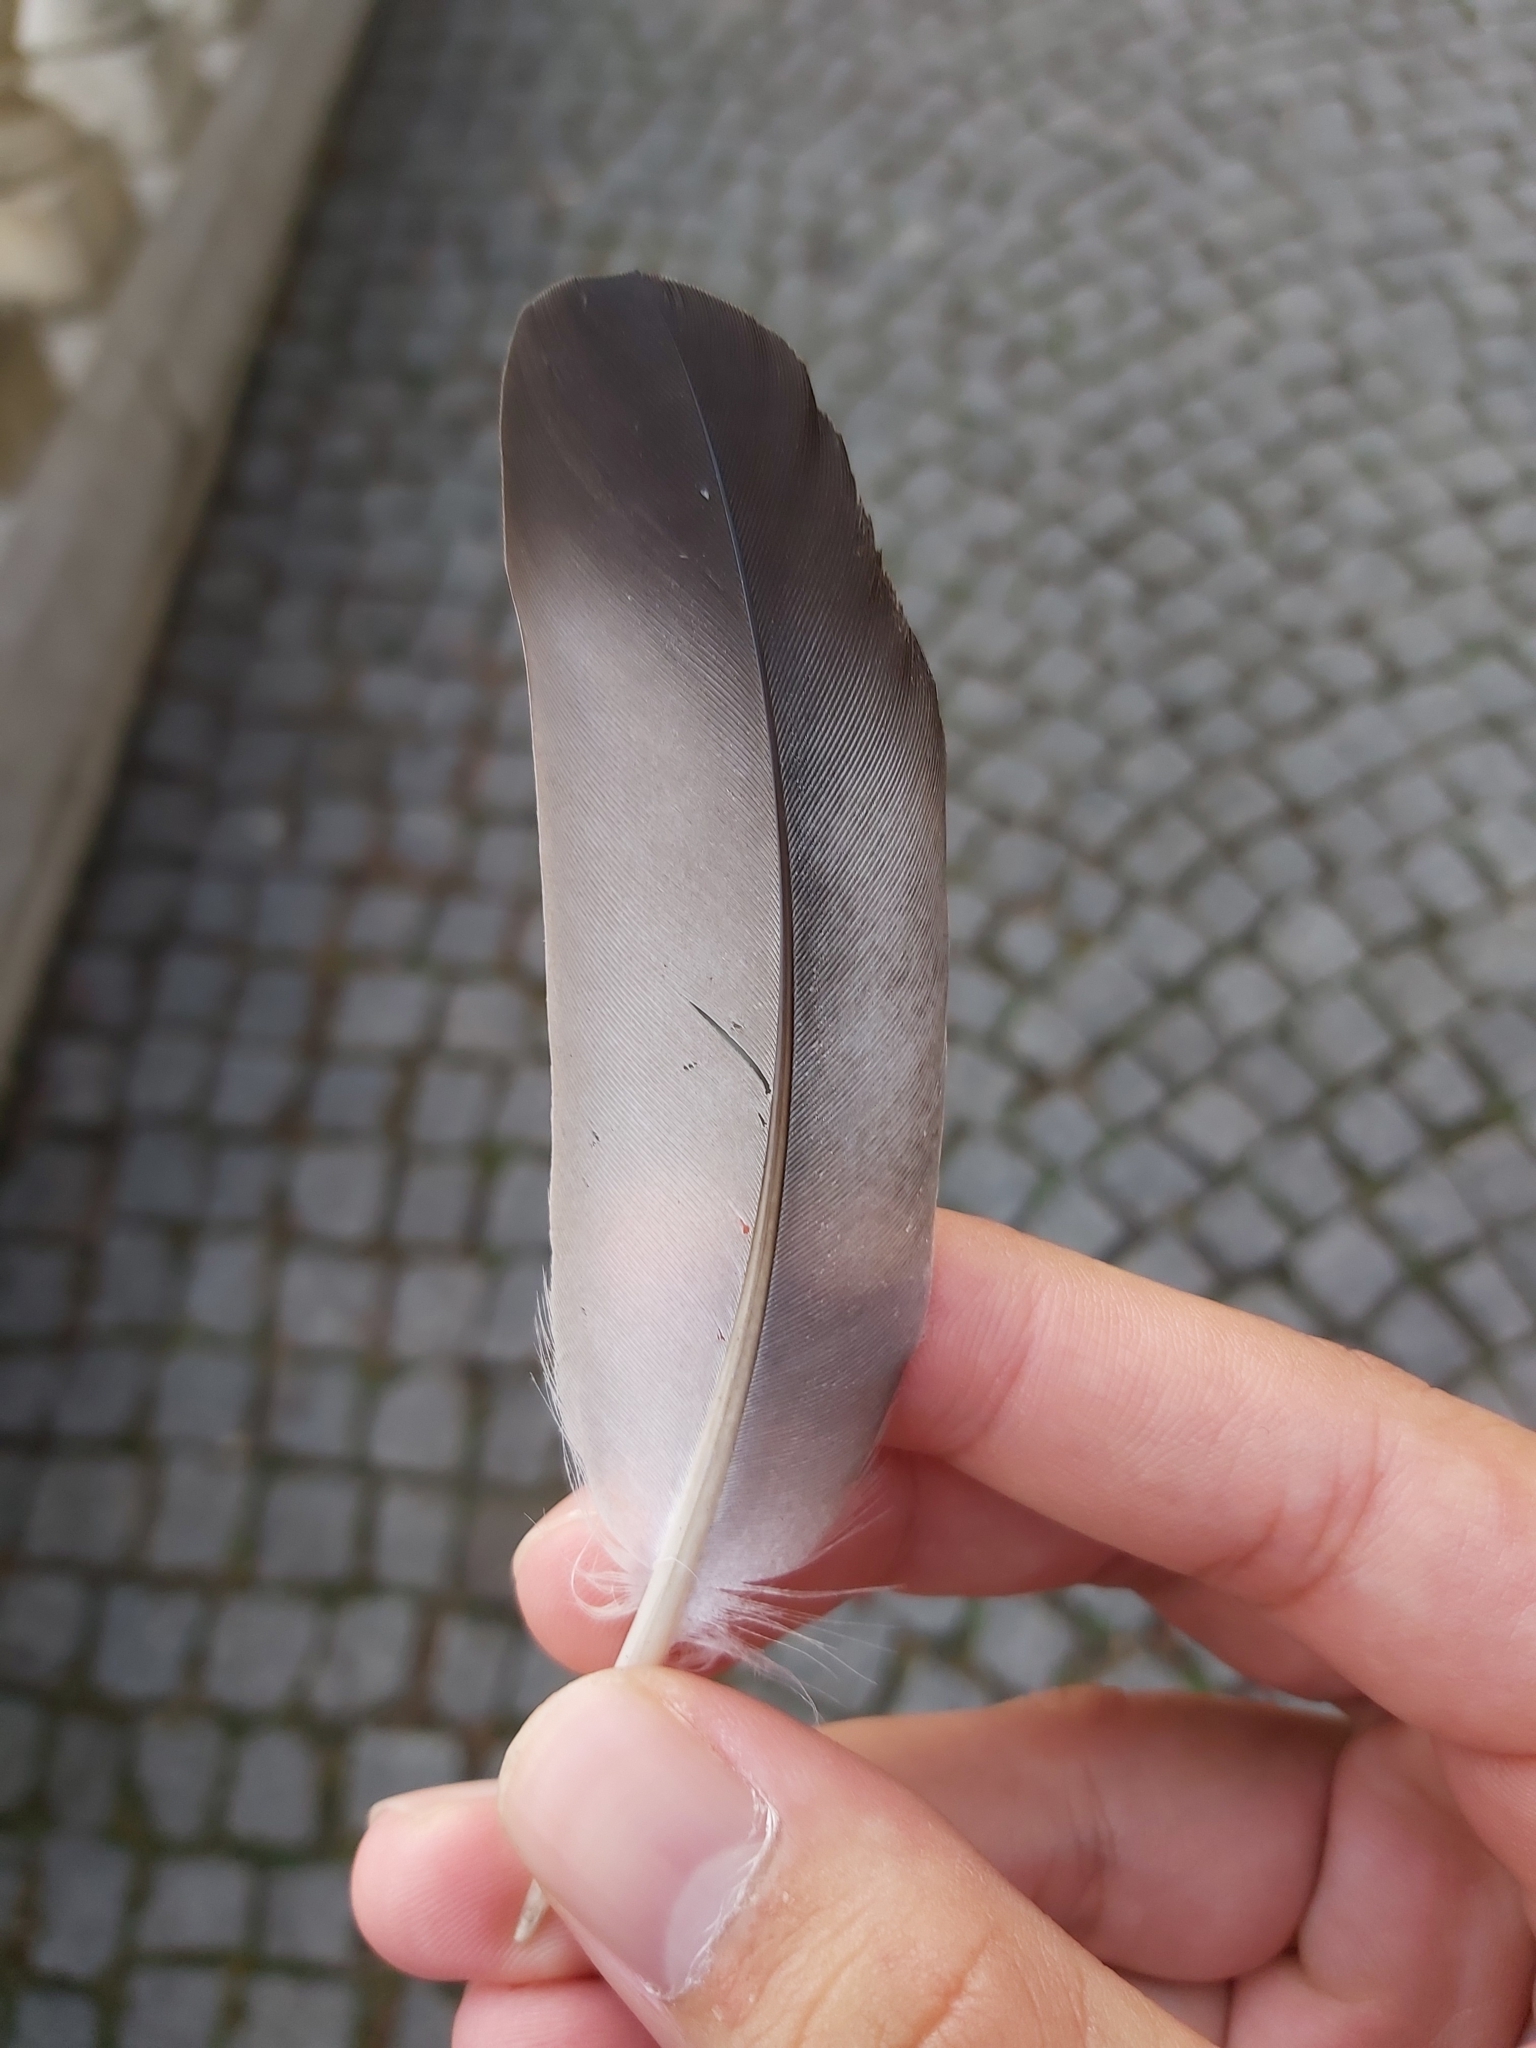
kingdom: Animalia
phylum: Chordata
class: Aves
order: Columbiformes
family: Columbidae
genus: Columba
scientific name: Columba livia
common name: Rock pigeon
